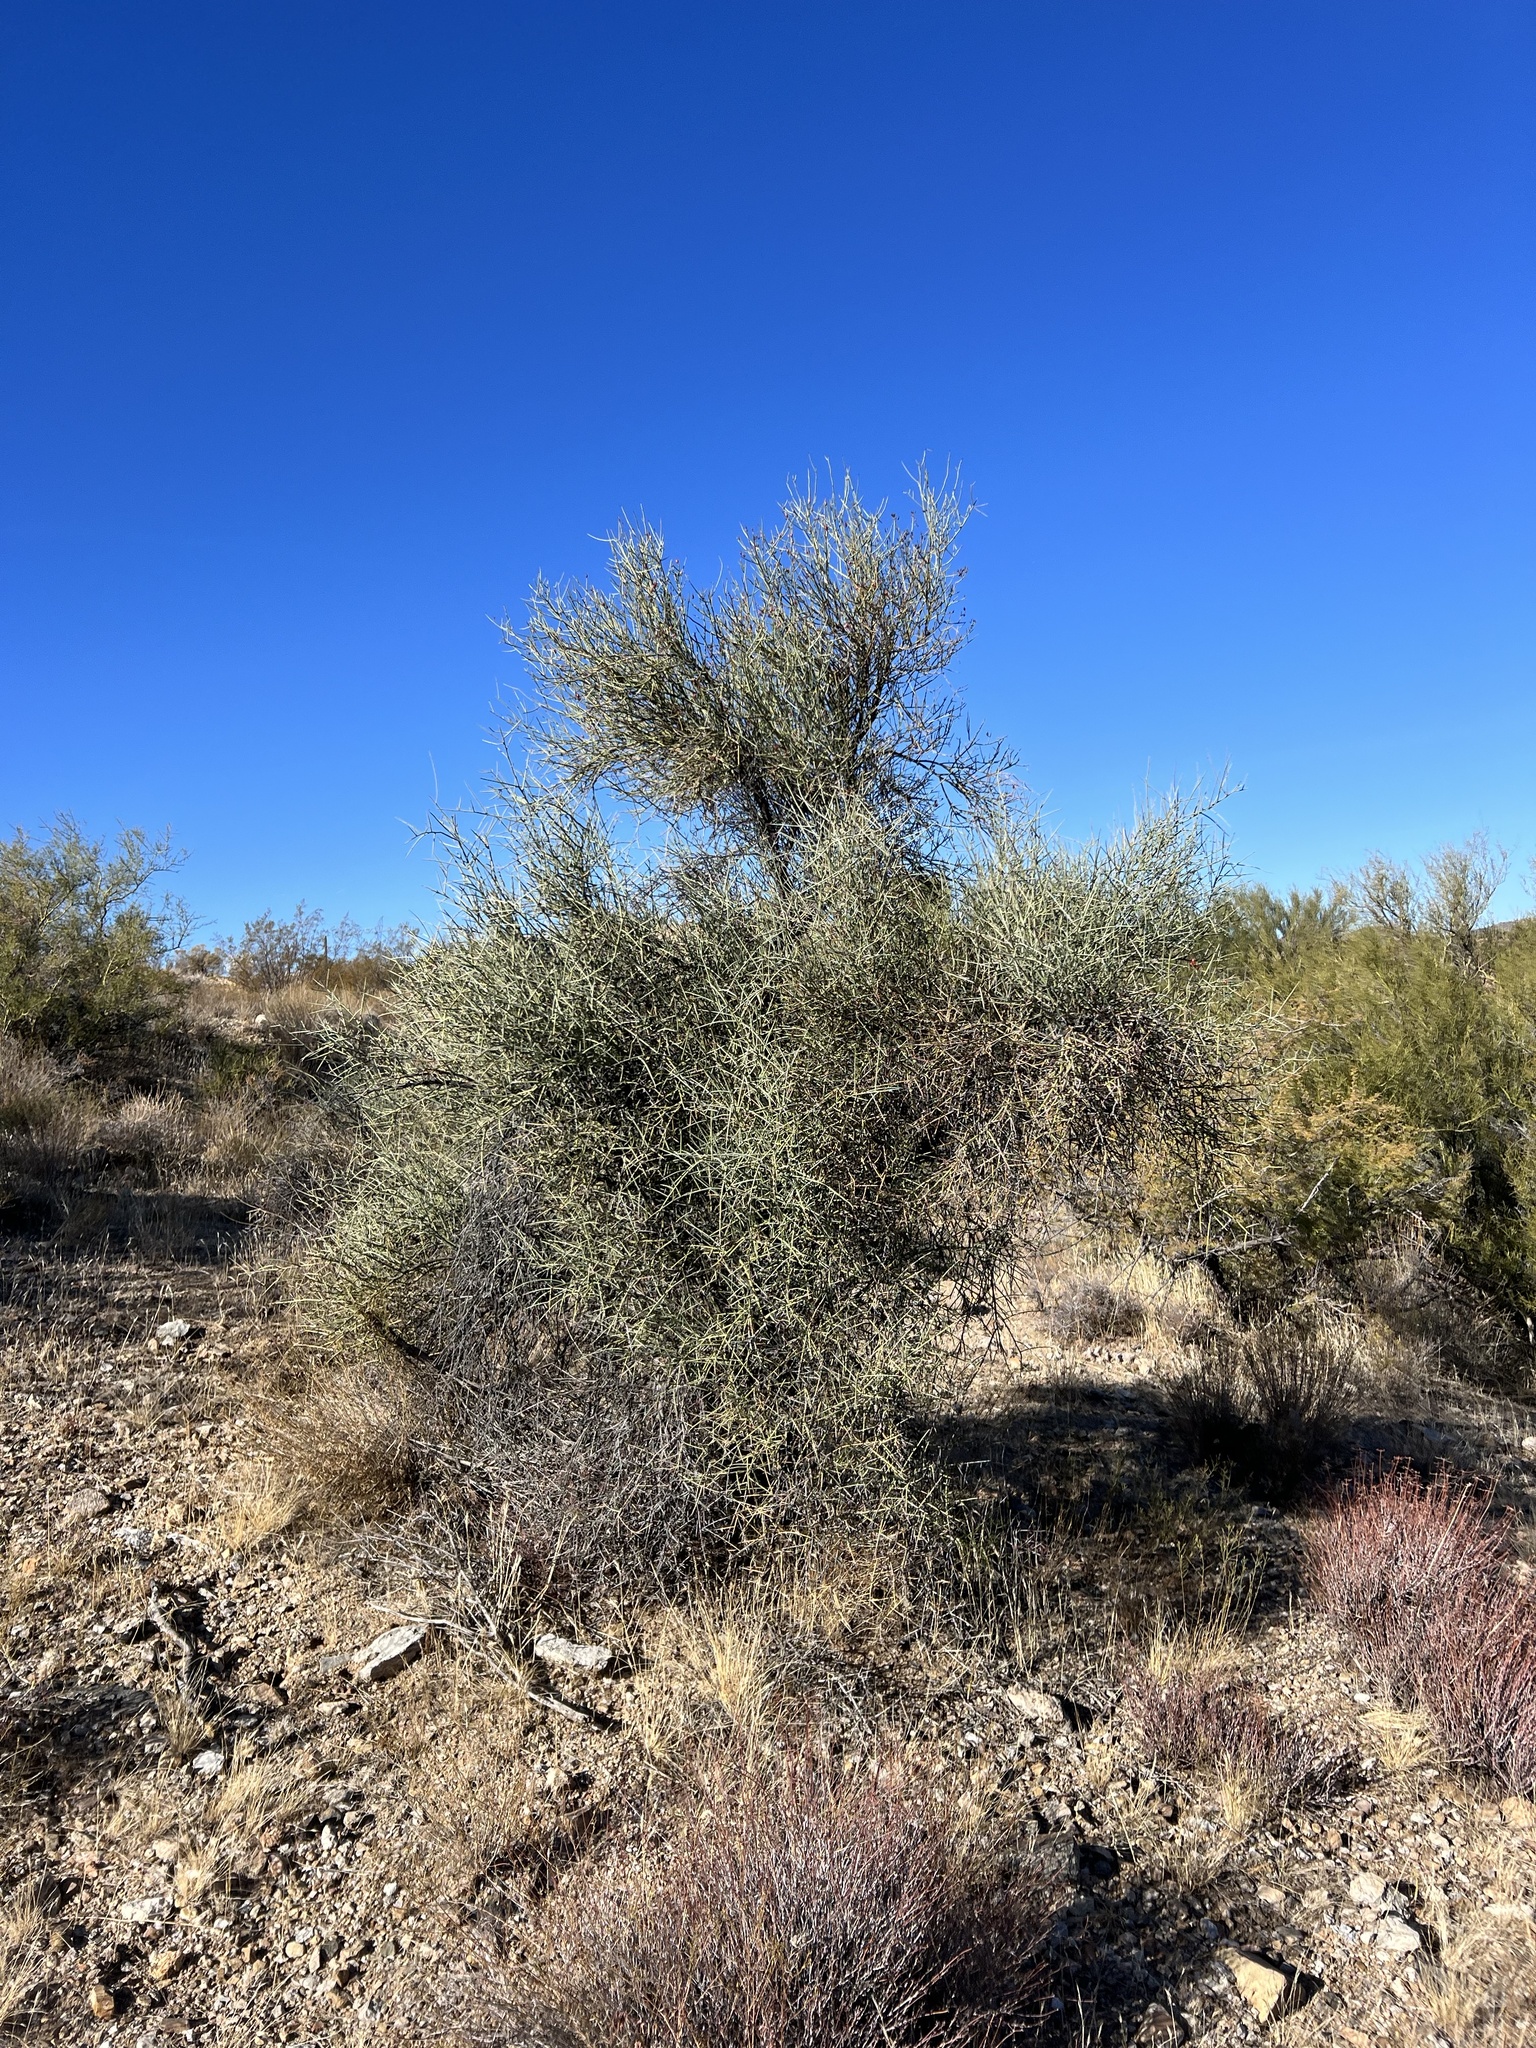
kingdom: Plantae
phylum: Tracheophyta
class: Magnoliopsida
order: Celastrales
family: Celastraceae
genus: Canotia
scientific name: Canotia holacantha
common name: Crucifixion thorns
